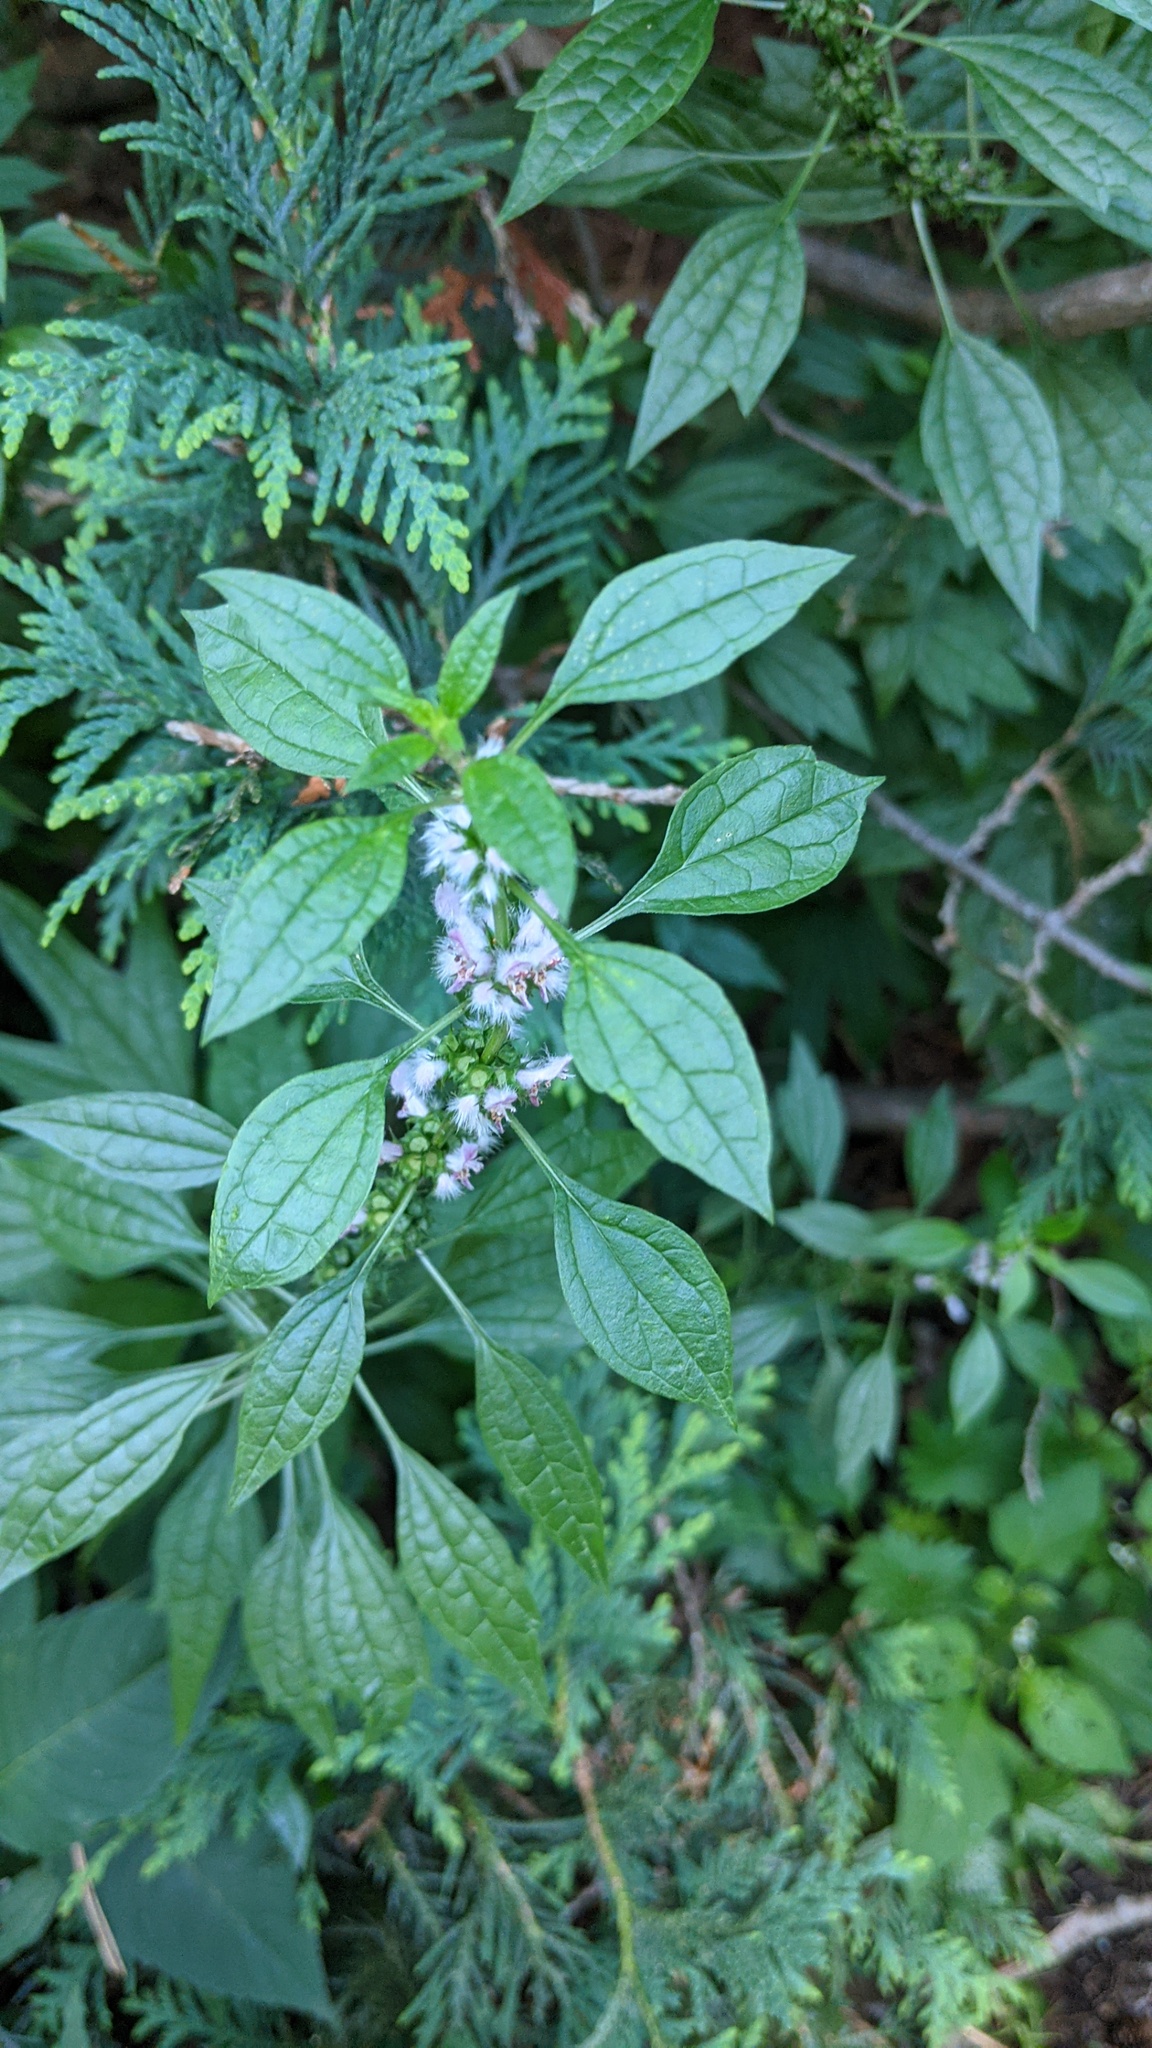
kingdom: Plantae
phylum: Tracheophyta
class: Magnoliopsida
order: Lamiales
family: Lamiaceae
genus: Leonurus
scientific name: Leonurus cardiaca
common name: Motherwort
